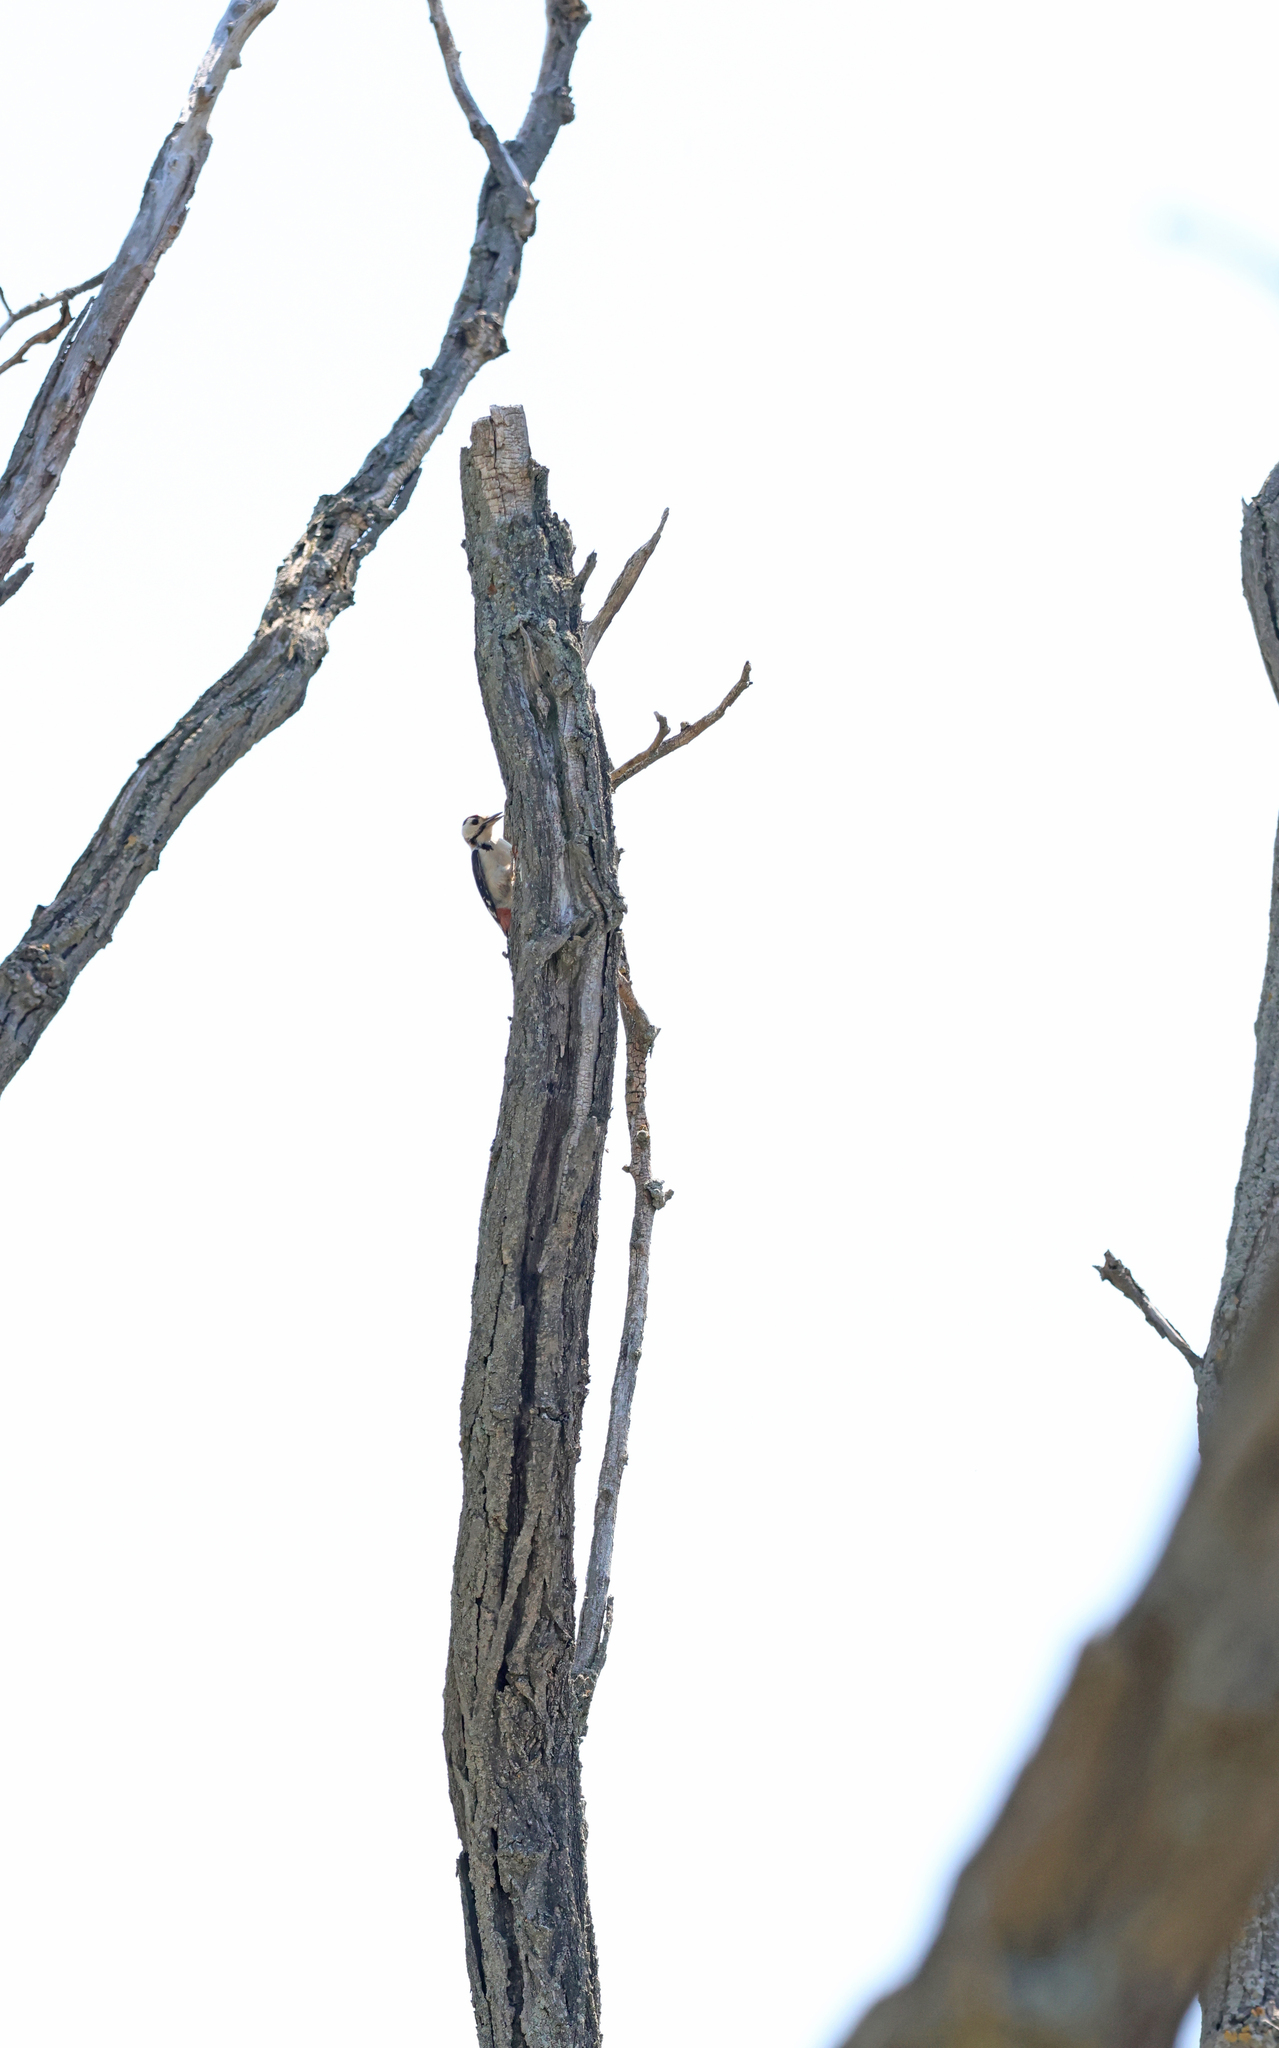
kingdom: Animalia
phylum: Chordata
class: Aves
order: Piciformes
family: Picidae
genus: Dendrocopos
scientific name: Dendrocopos syriacus
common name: Syrian woodpecker
